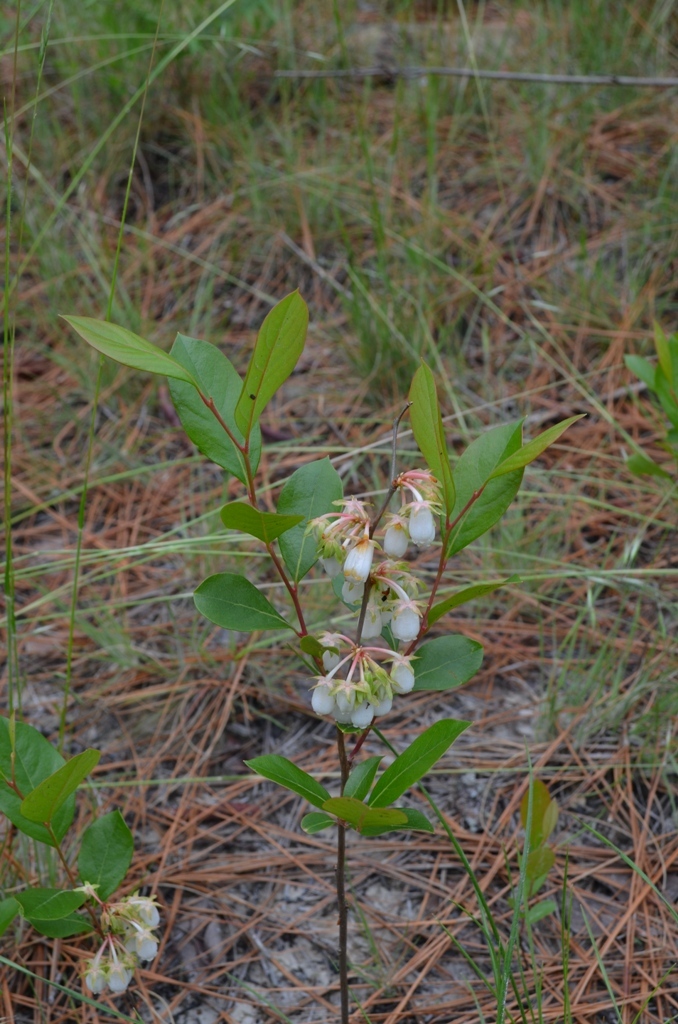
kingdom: Plantae
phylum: Tracheophyta
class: Magnoliopsida
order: Ericales
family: Ericaceae
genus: Lyonia
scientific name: Lyonia mariana
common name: Staggerbush
